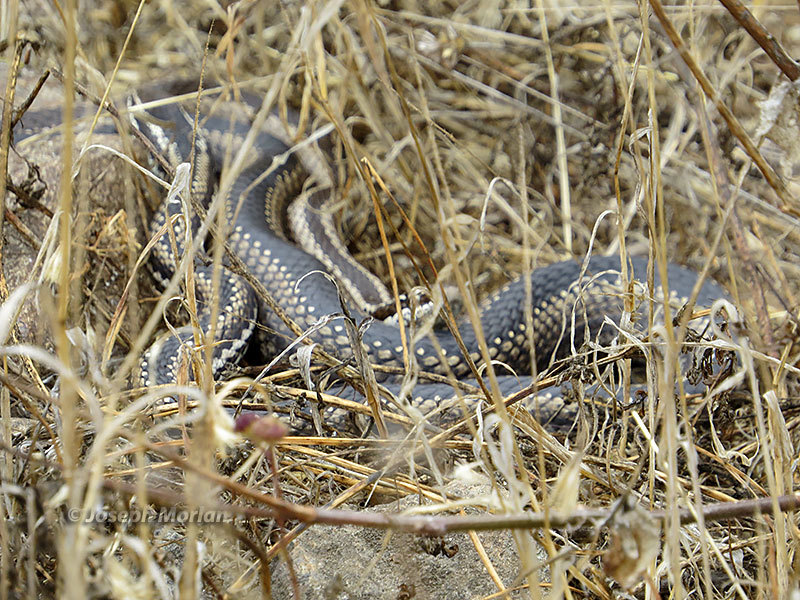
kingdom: Animalia
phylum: Chordata
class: Squamata
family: Colubridae
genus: Philodryas
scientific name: Philodryas chamissonis
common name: Chilean green racer
